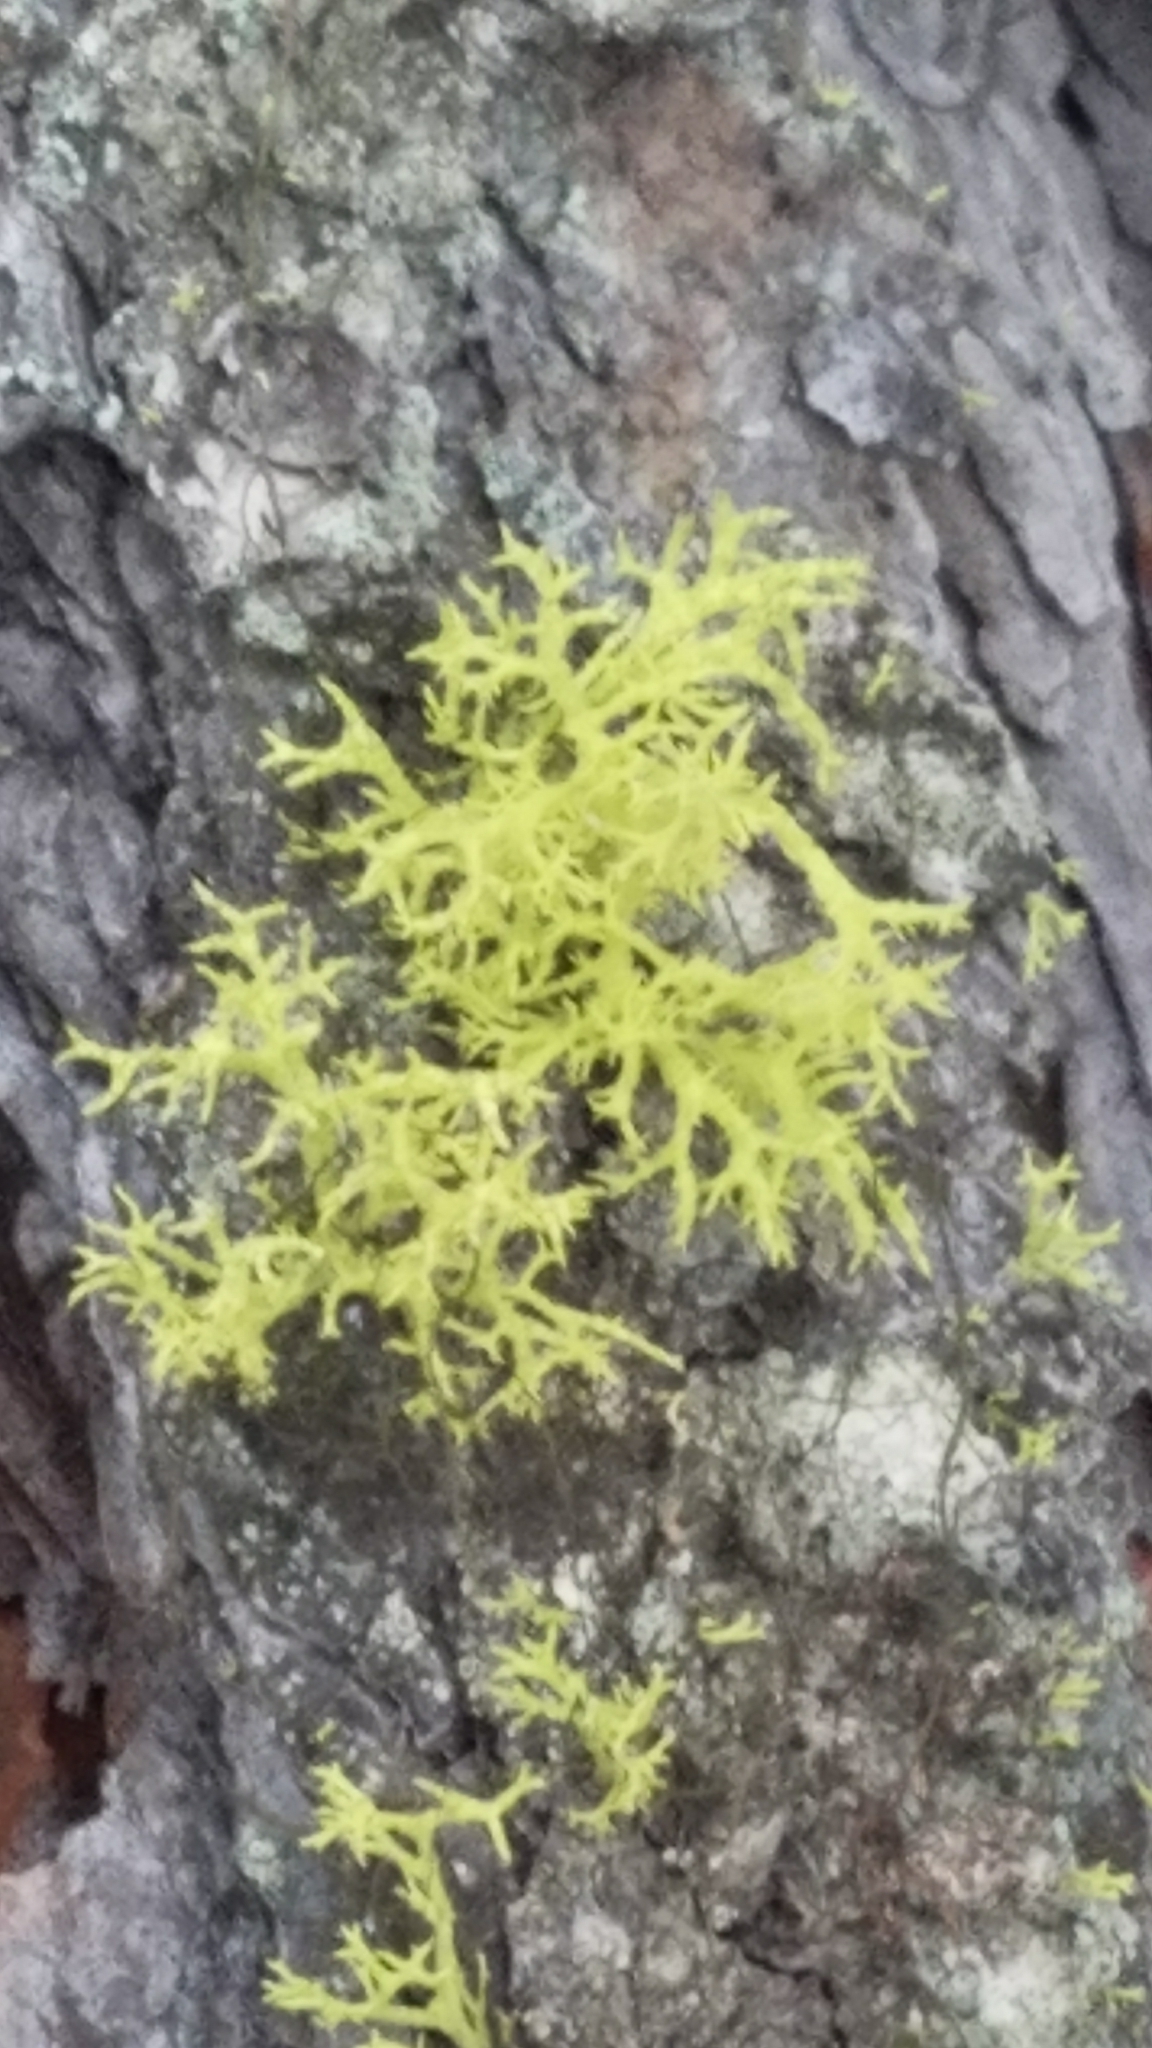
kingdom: Fungi
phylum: Ascomycota
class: Lecanoromycetes
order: Lecanorales
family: Parmeliaceae
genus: Letharia
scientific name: Letharia vulpina
